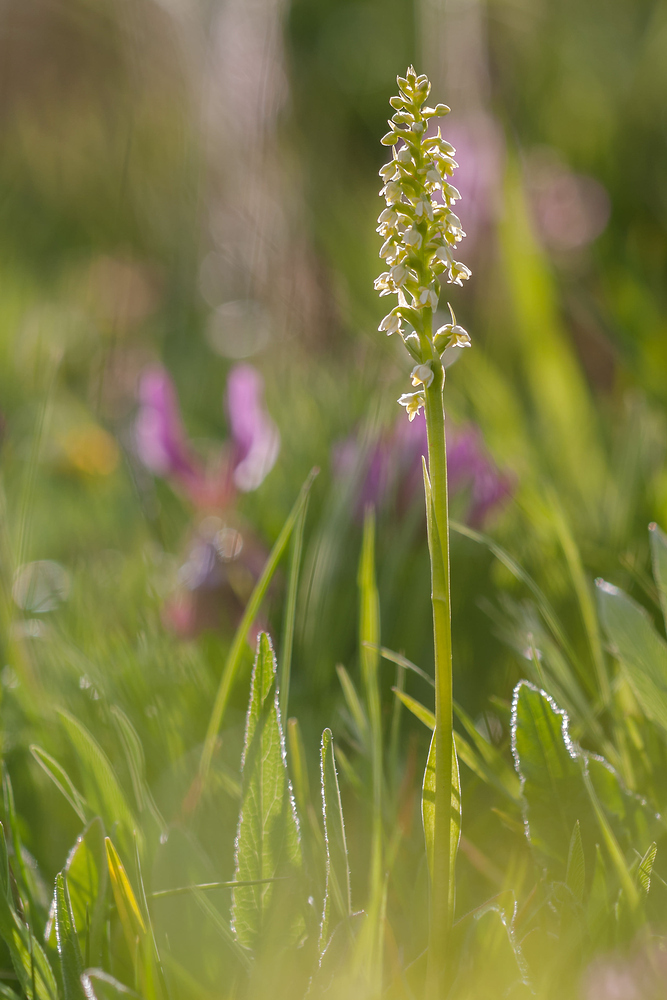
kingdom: Plantae
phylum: Tracheophyta
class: Liliopsida
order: Asparagales
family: Orchidaceae
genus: Pseudorchis
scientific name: Pseudorchis albida
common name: Small-white orchid
